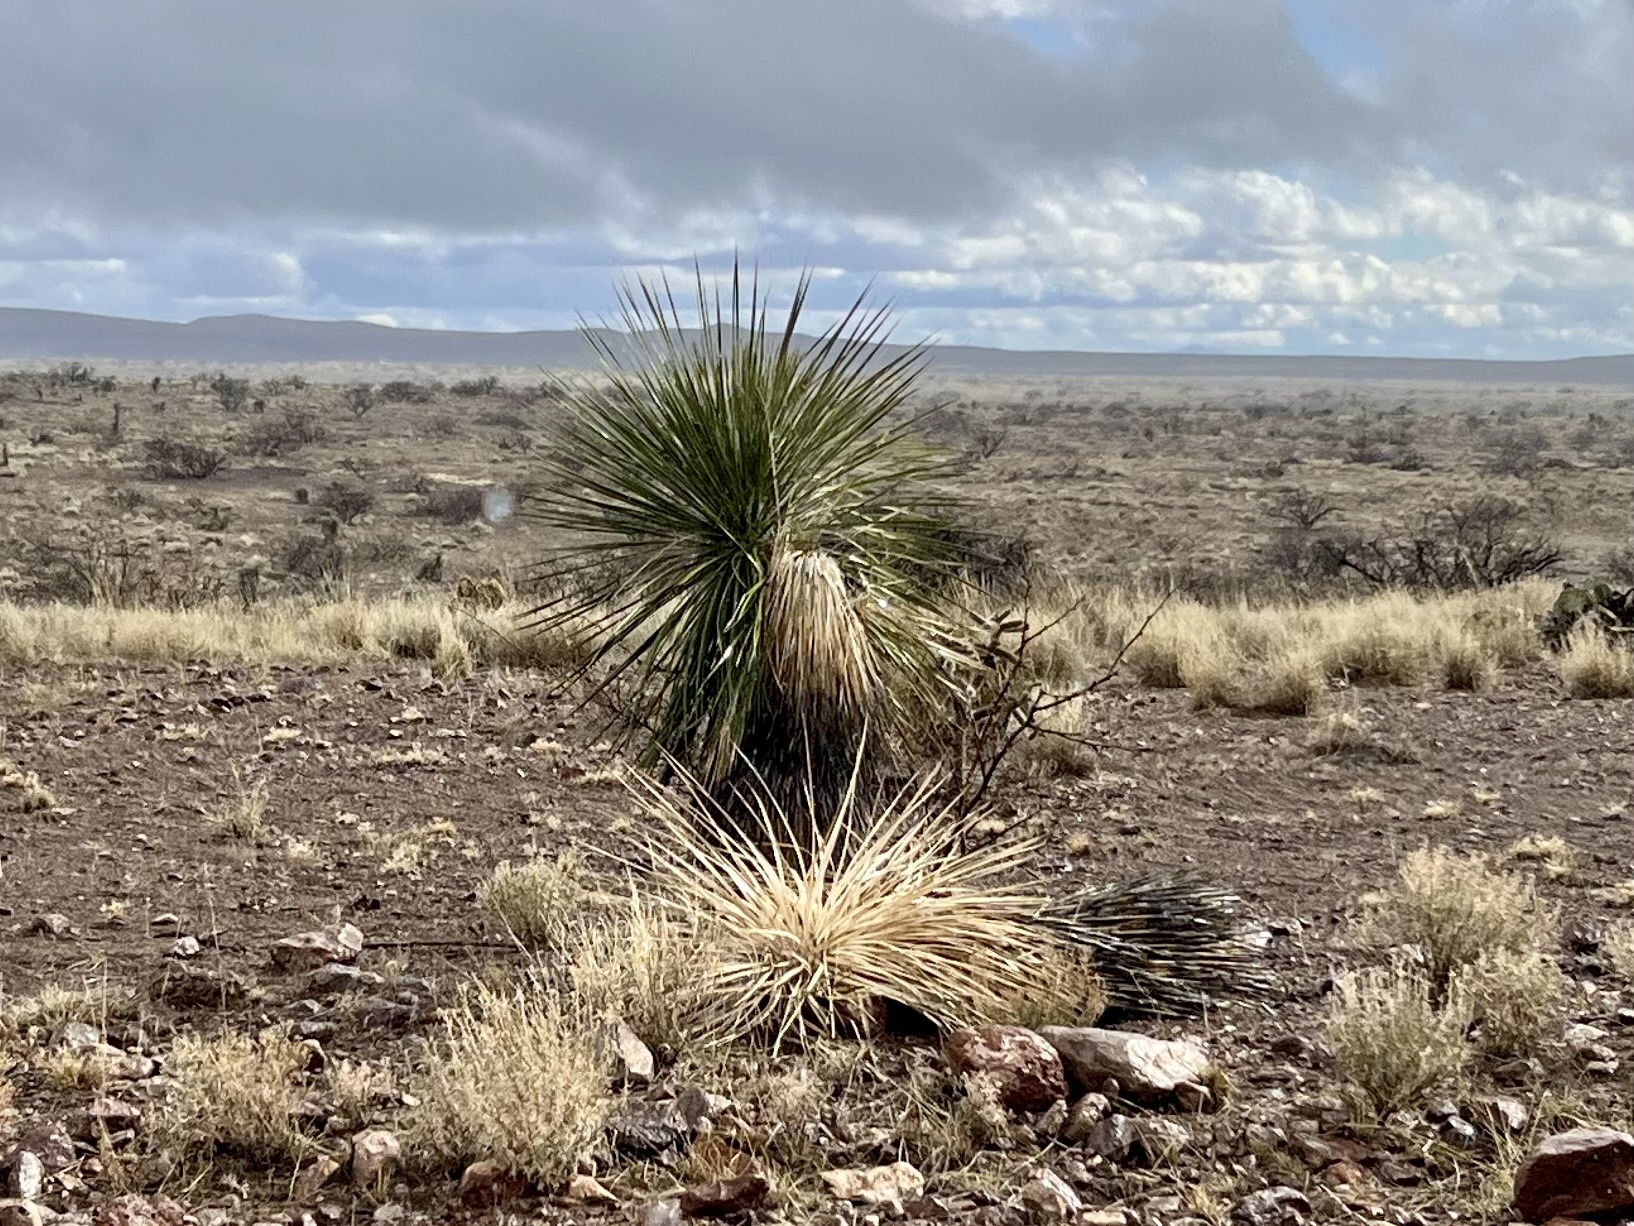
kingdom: Plantae
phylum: Tracheophyta
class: Liliopsida
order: Asparagales
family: Asparagaceae
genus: Yucca
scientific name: Yucca elata
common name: Palmella
